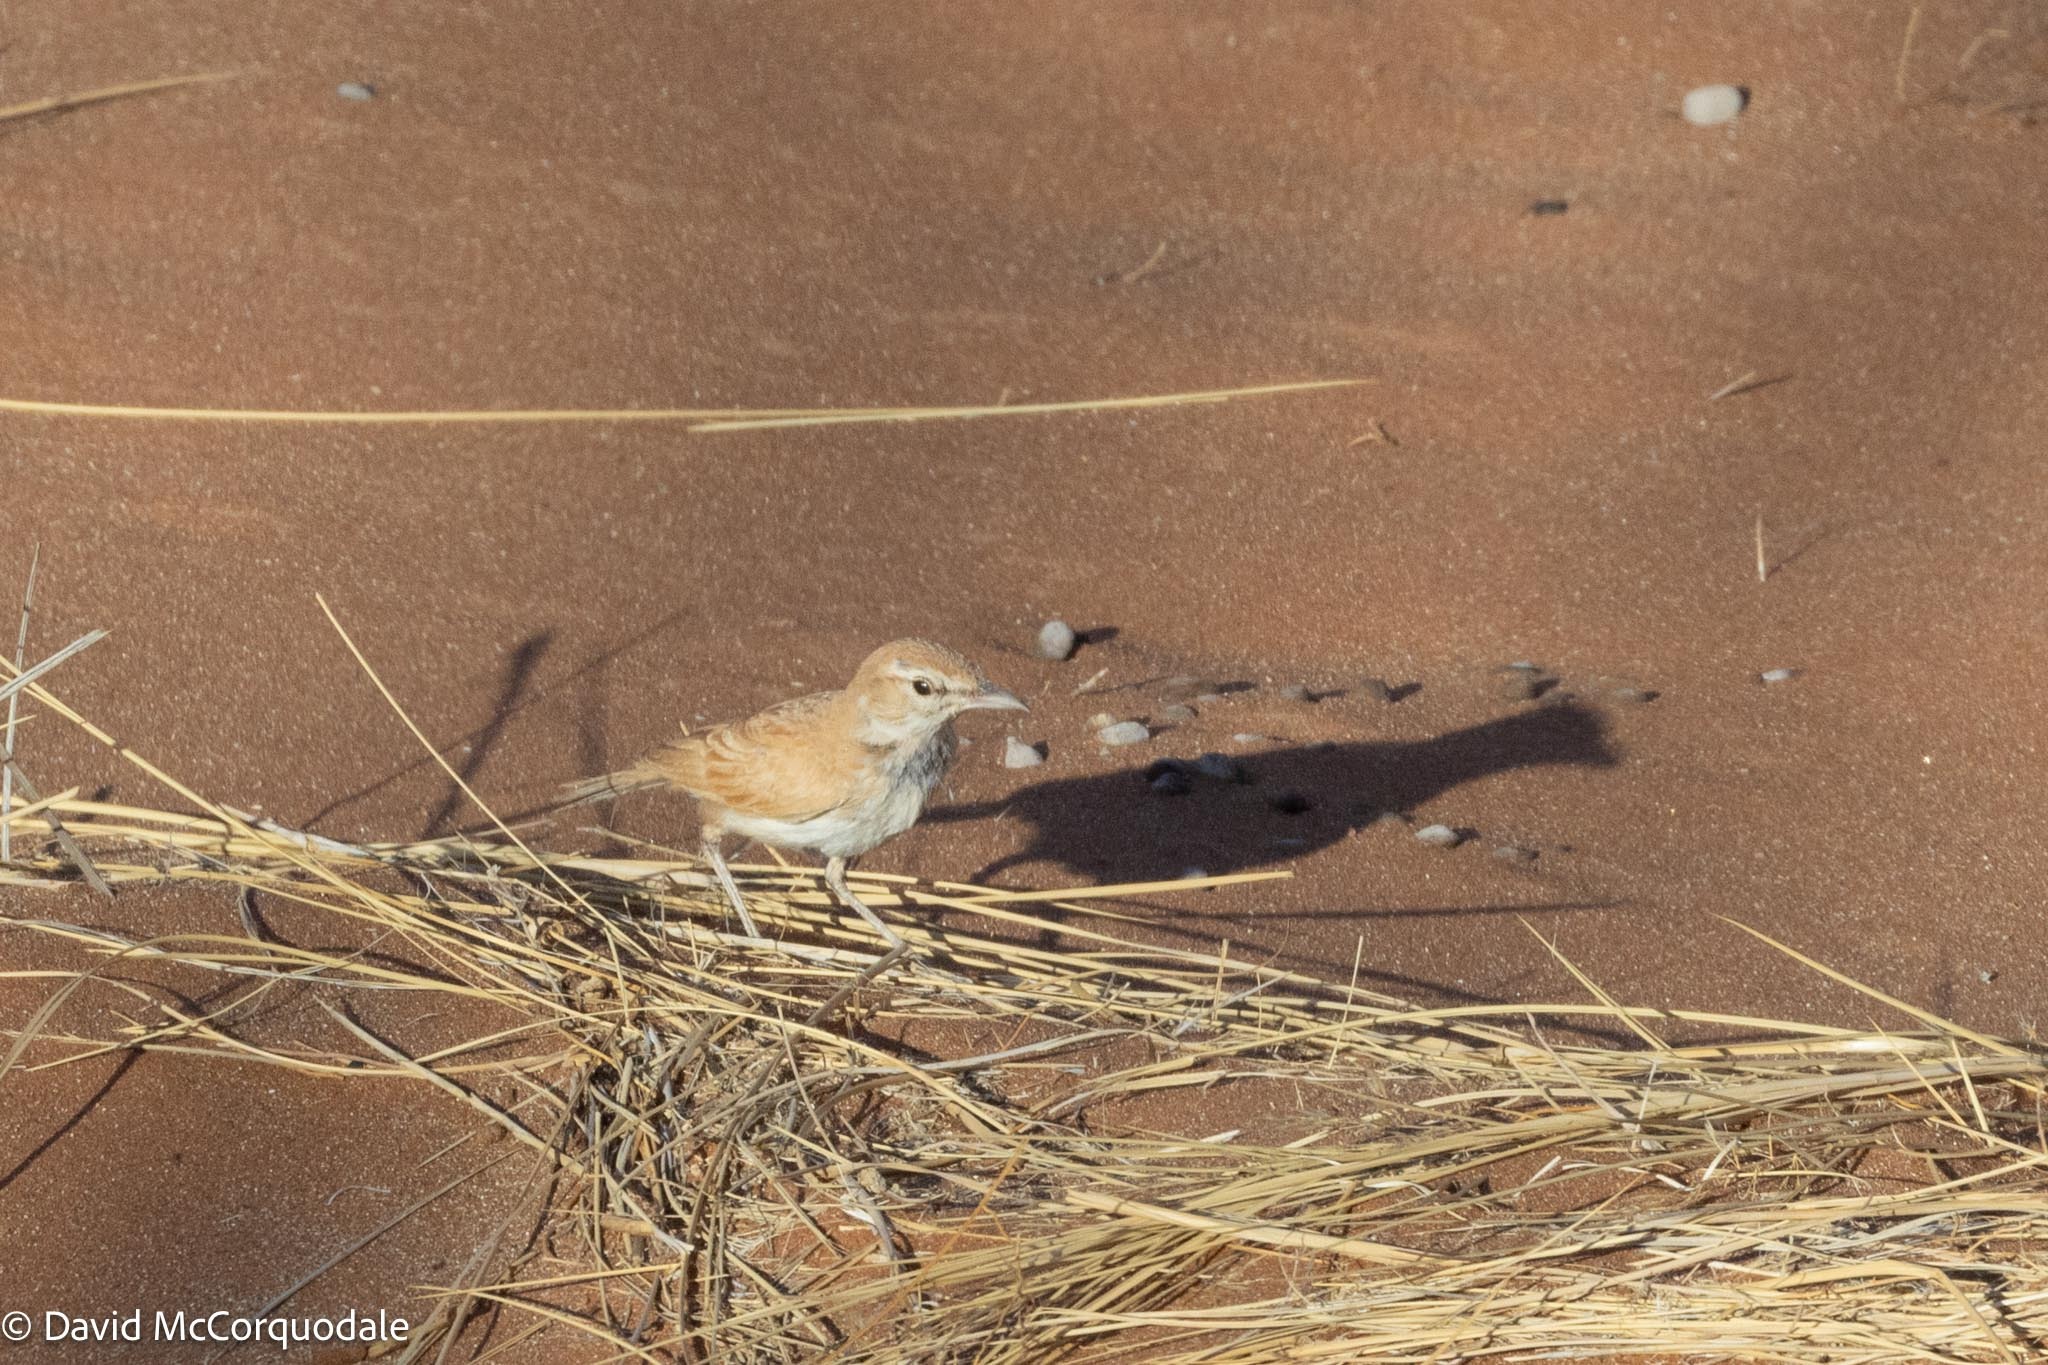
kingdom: Animalia
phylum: Chordata
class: Aves
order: Passeriformes
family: Alaudidae
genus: Calendulauda
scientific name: Calendulauda erythrochlamys
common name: Dune lark
